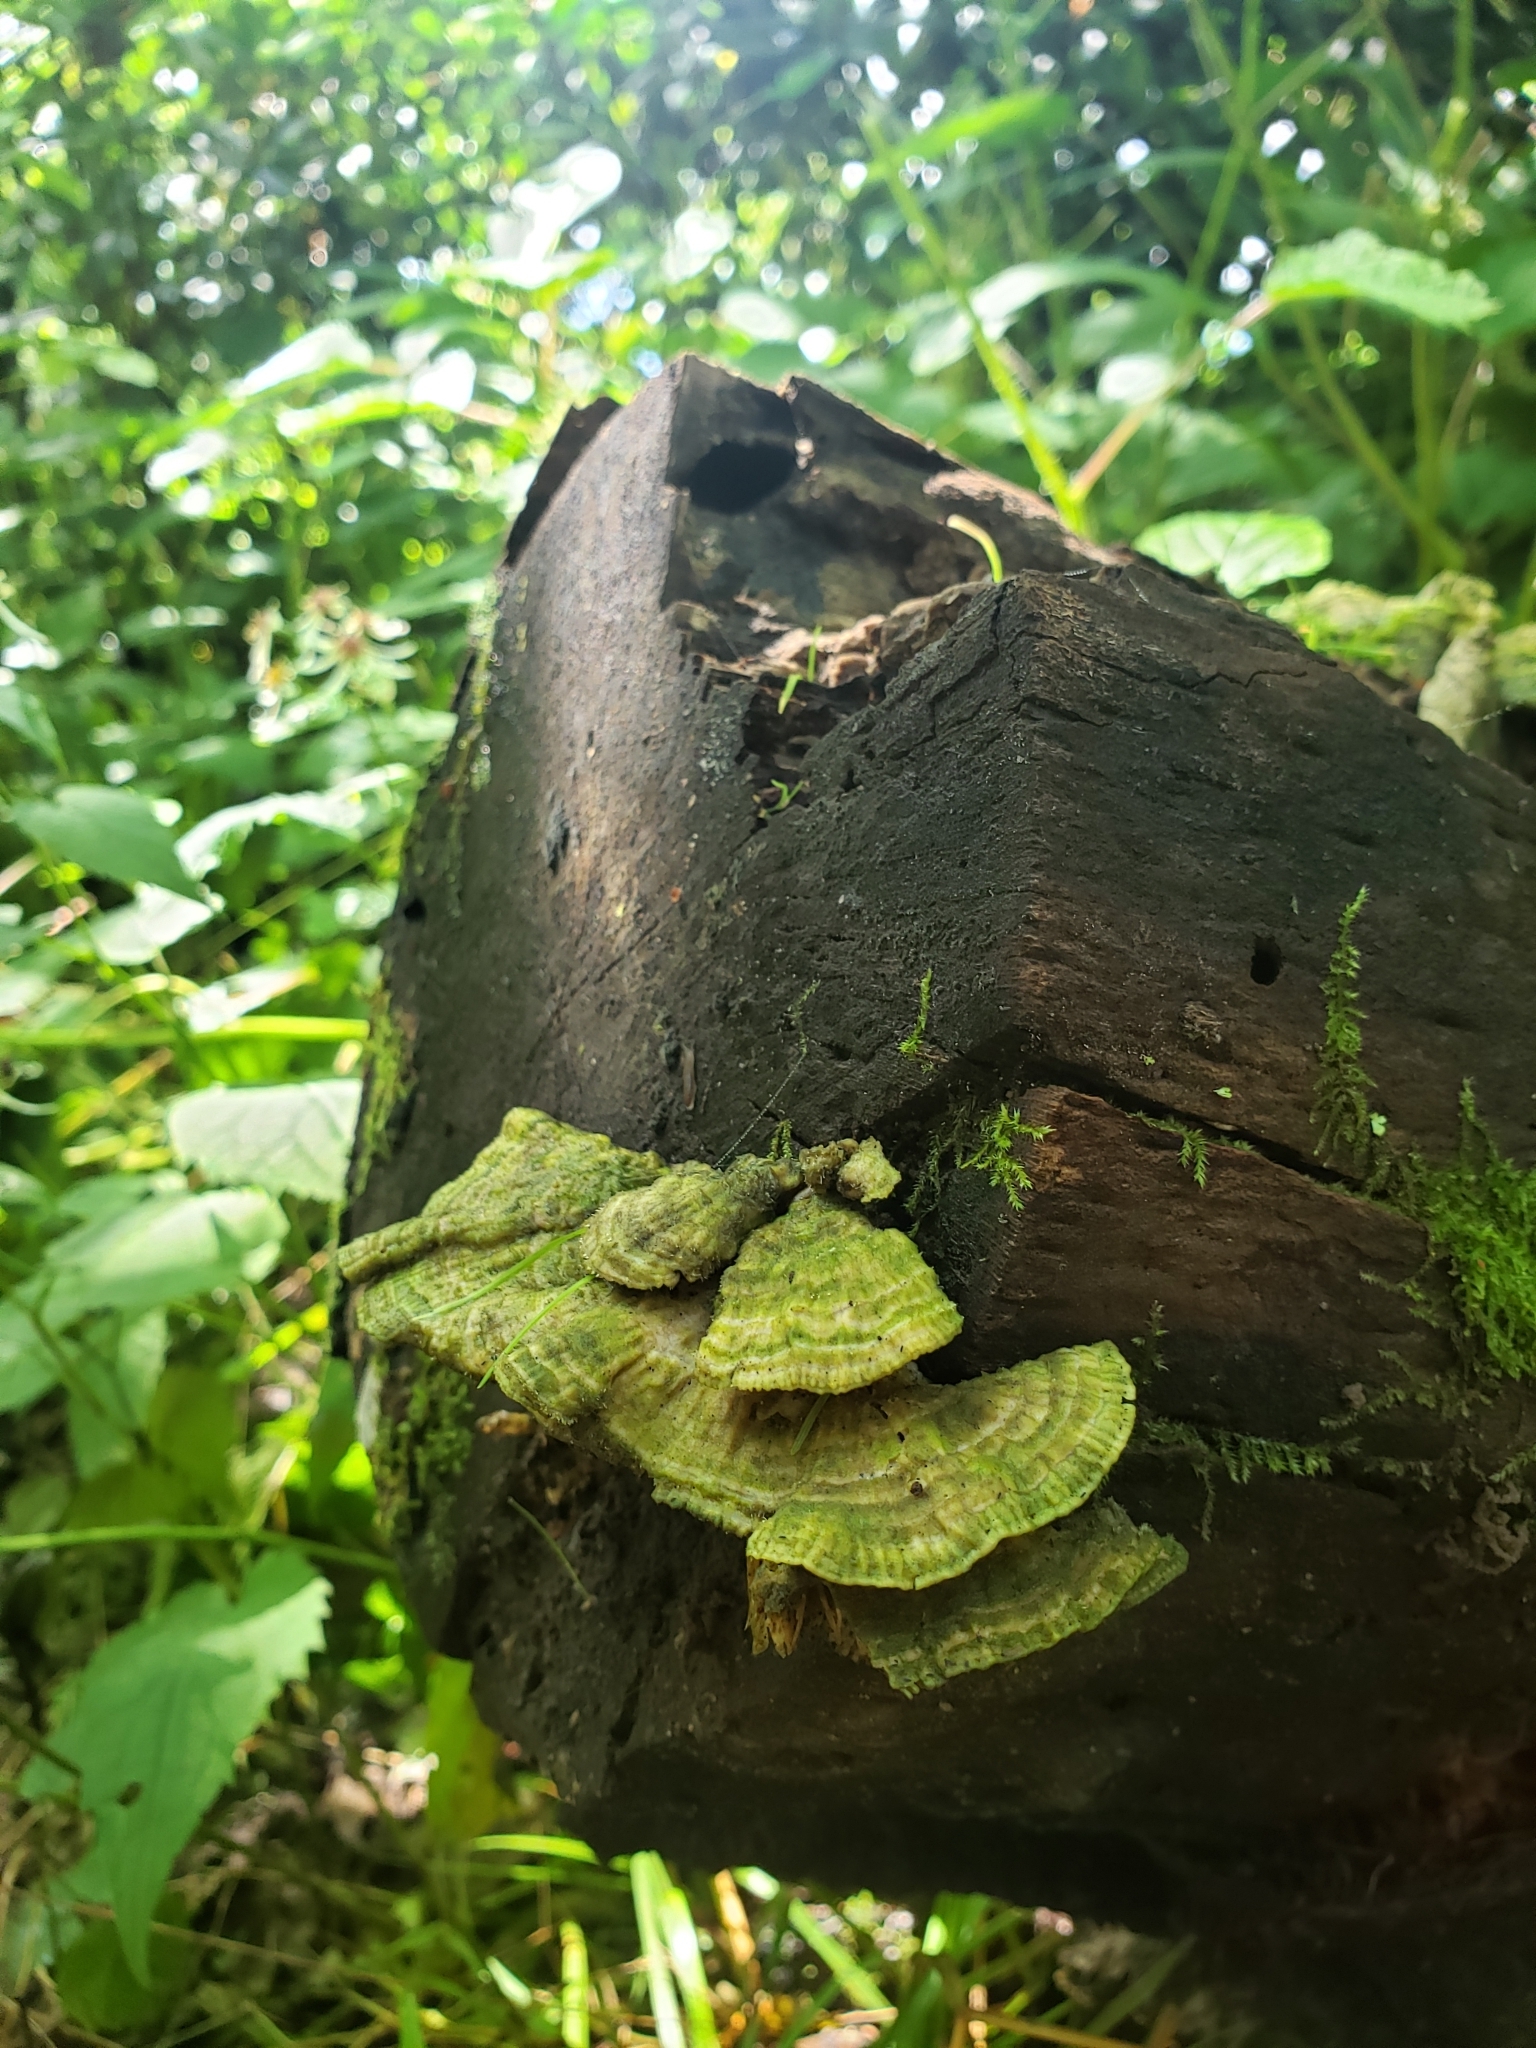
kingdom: Fungi
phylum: Basidiomycota
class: Agaricomycetes
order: Polyporales
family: Polyporaceae
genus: Lenzites
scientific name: Lenzites betulinus
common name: Birch mazegill
